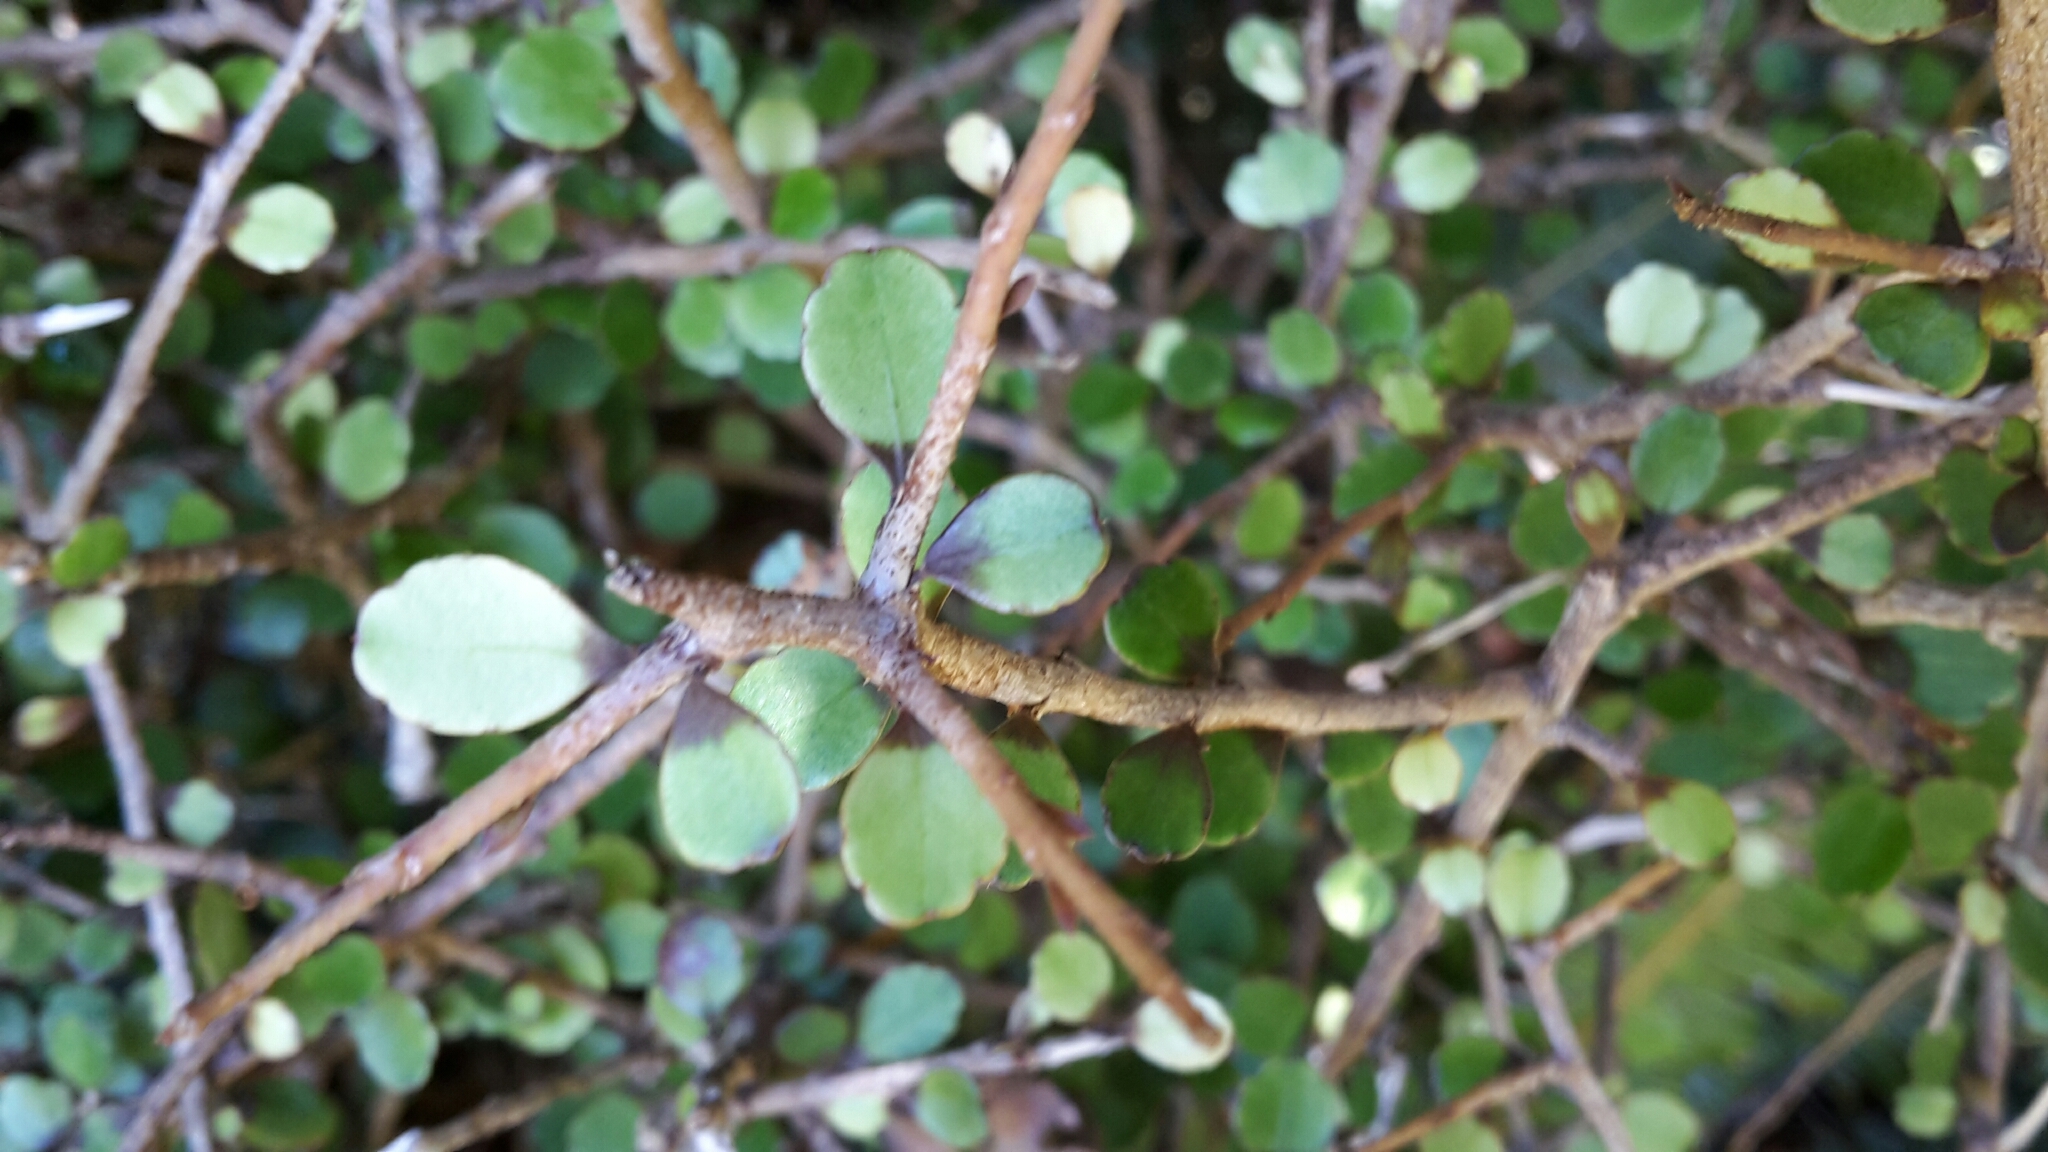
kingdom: Plantae
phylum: Tracheophyta
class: Magnoliopsida
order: Apiales
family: Araliaceae
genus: Raukaua
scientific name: Raukaua anomalus
